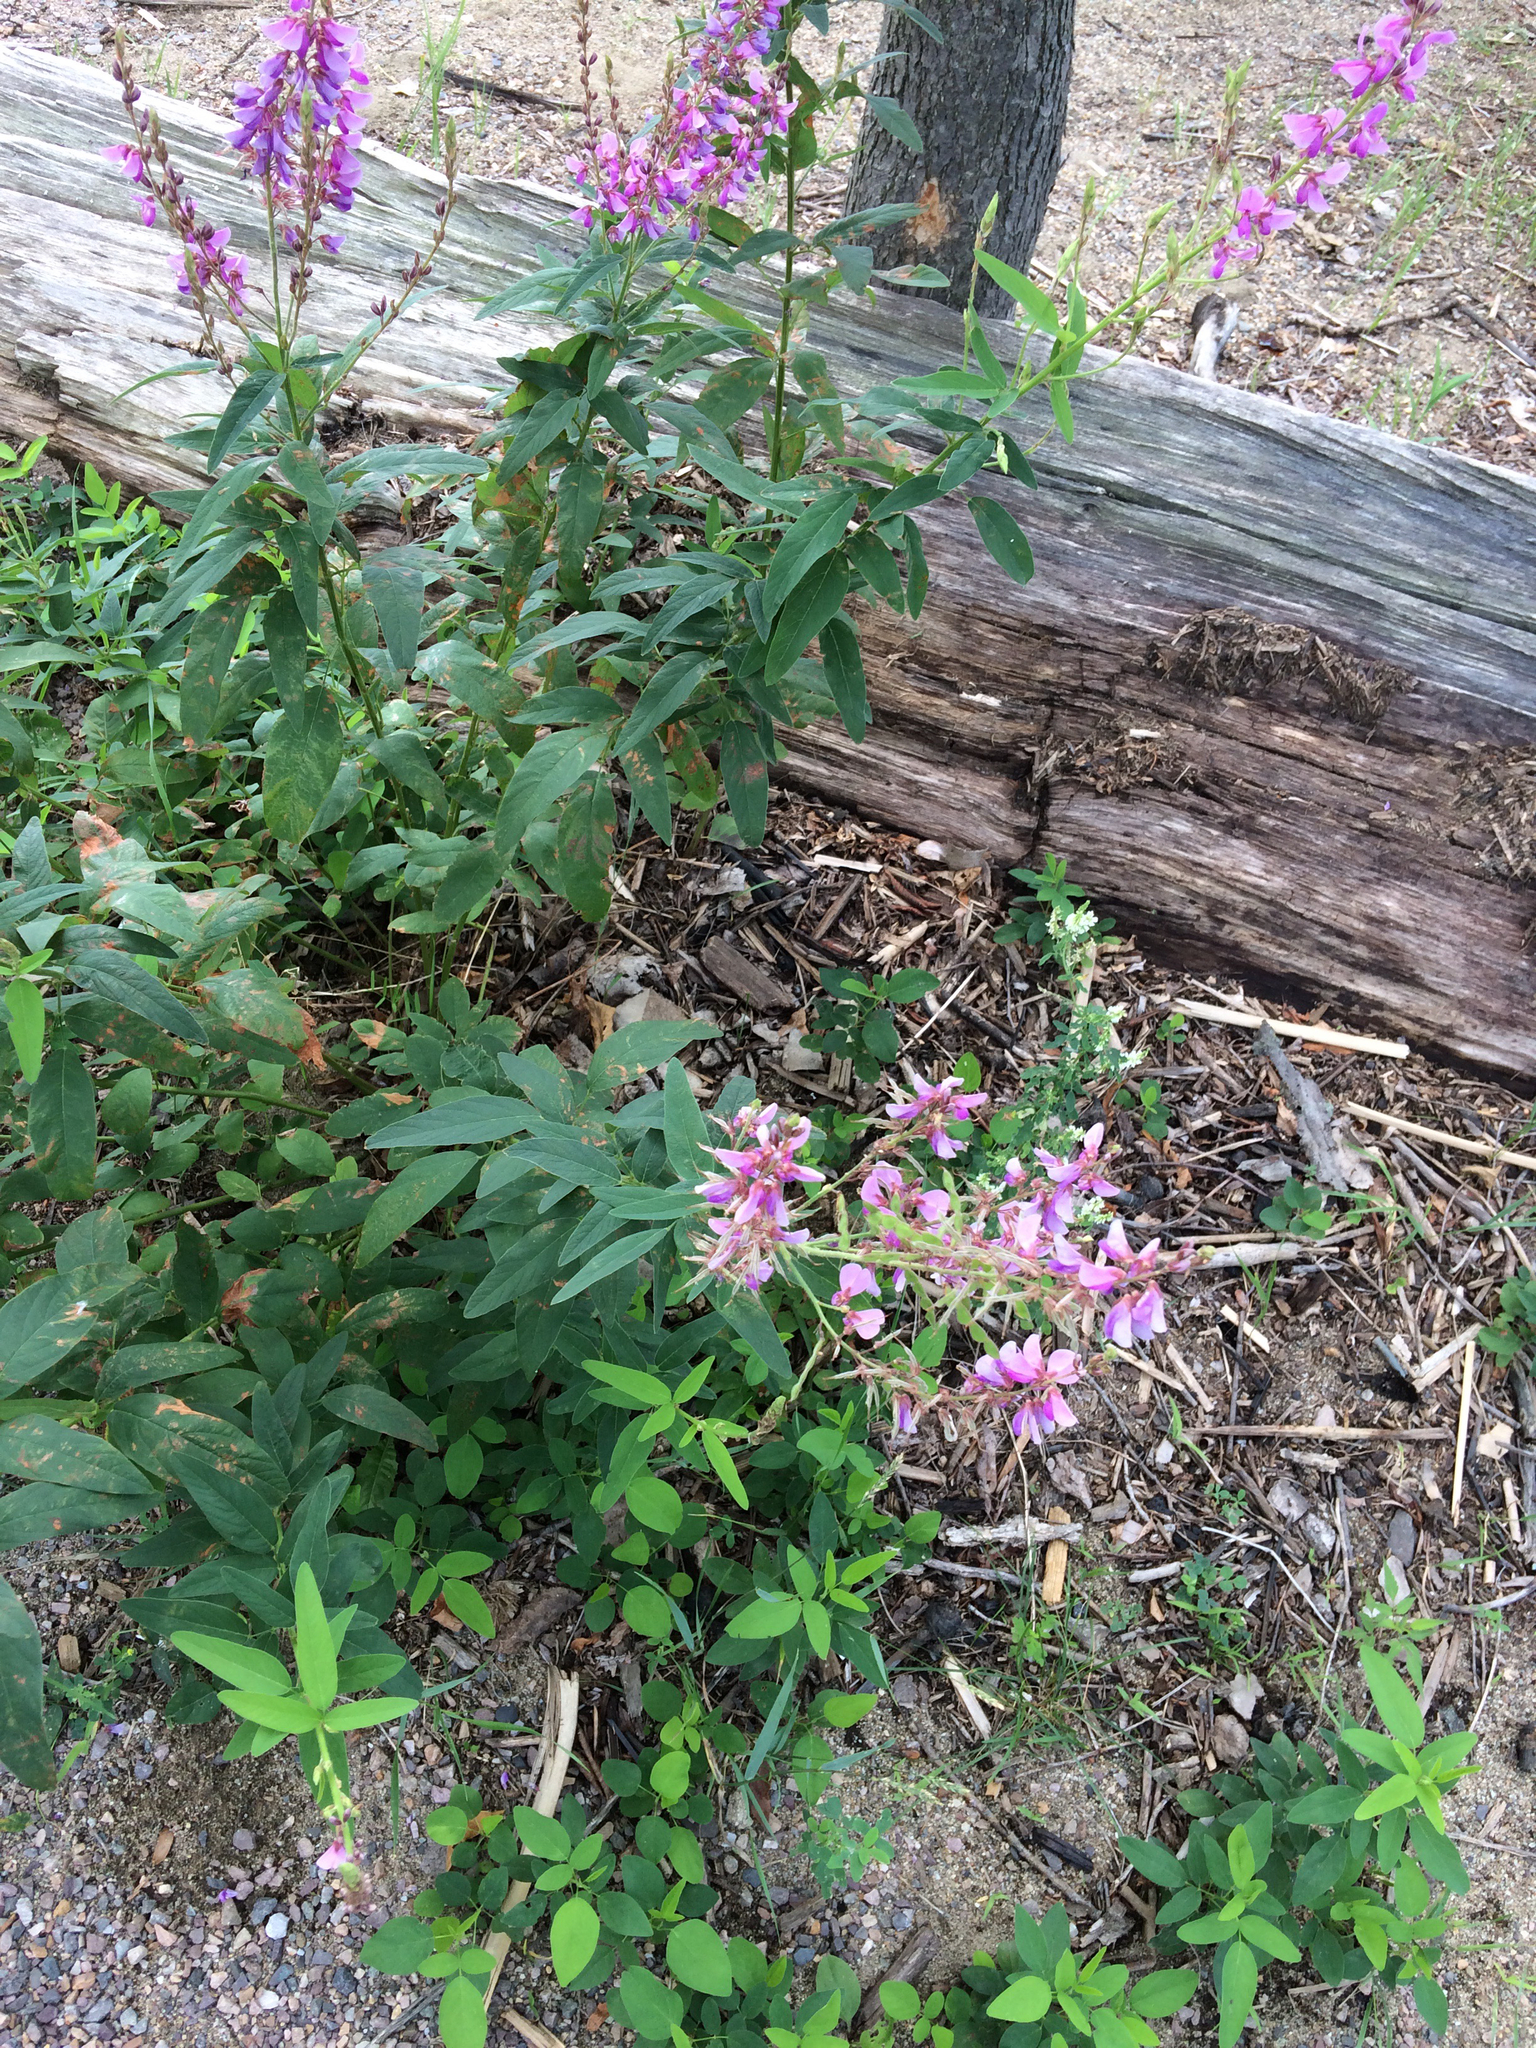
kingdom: Plantae
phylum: Tracheophyta
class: Magnoliopsida
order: Fabales
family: Fabaceae
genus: Desmodium
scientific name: Desmodium canadense
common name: Canada tick-trefoil
